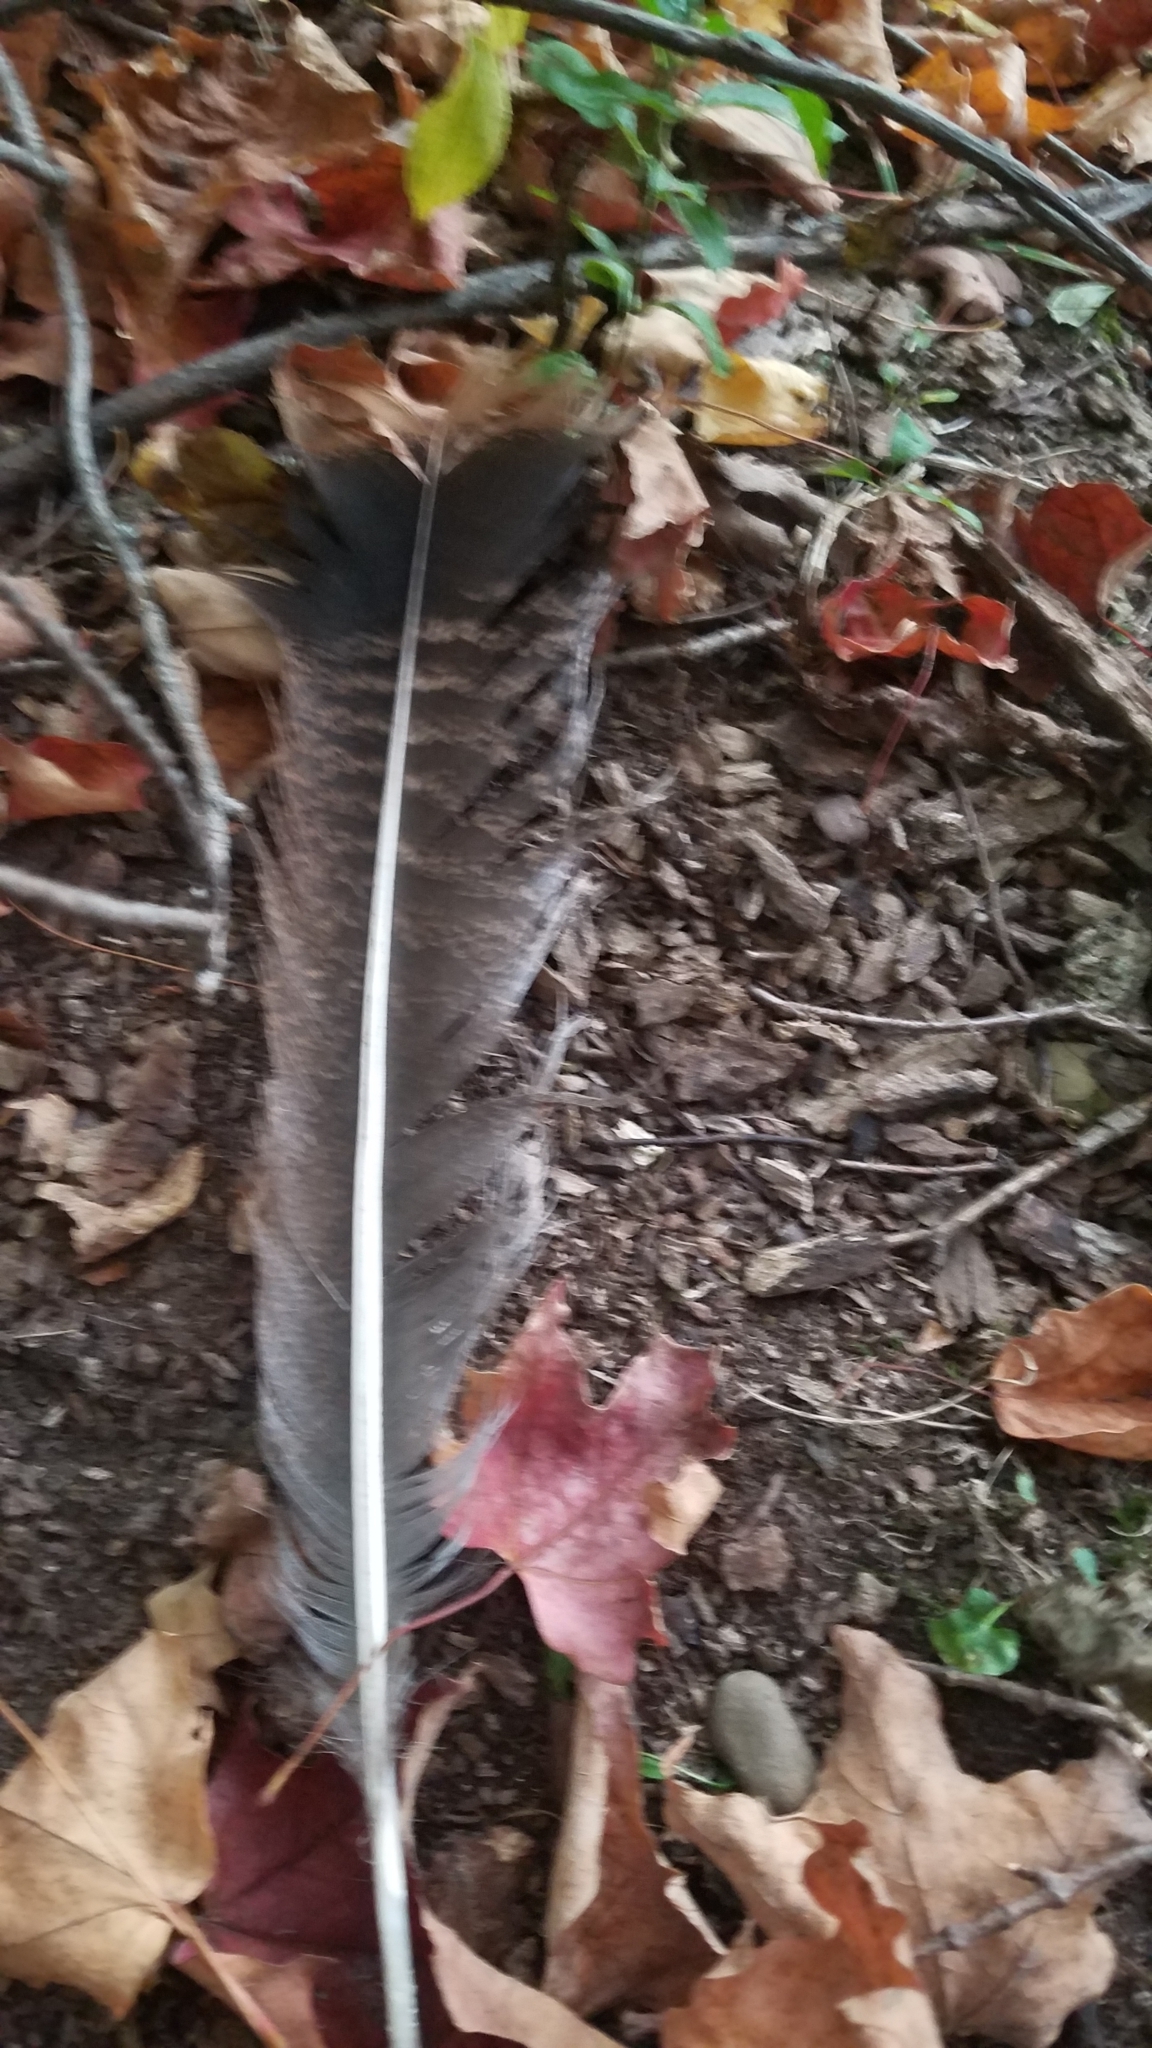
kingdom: Animalia
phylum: Chordata
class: Aves
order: Galliformes
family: Phasianidae
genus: Meleagris
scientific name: Meleagris gallopavo
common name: Wild turkey
